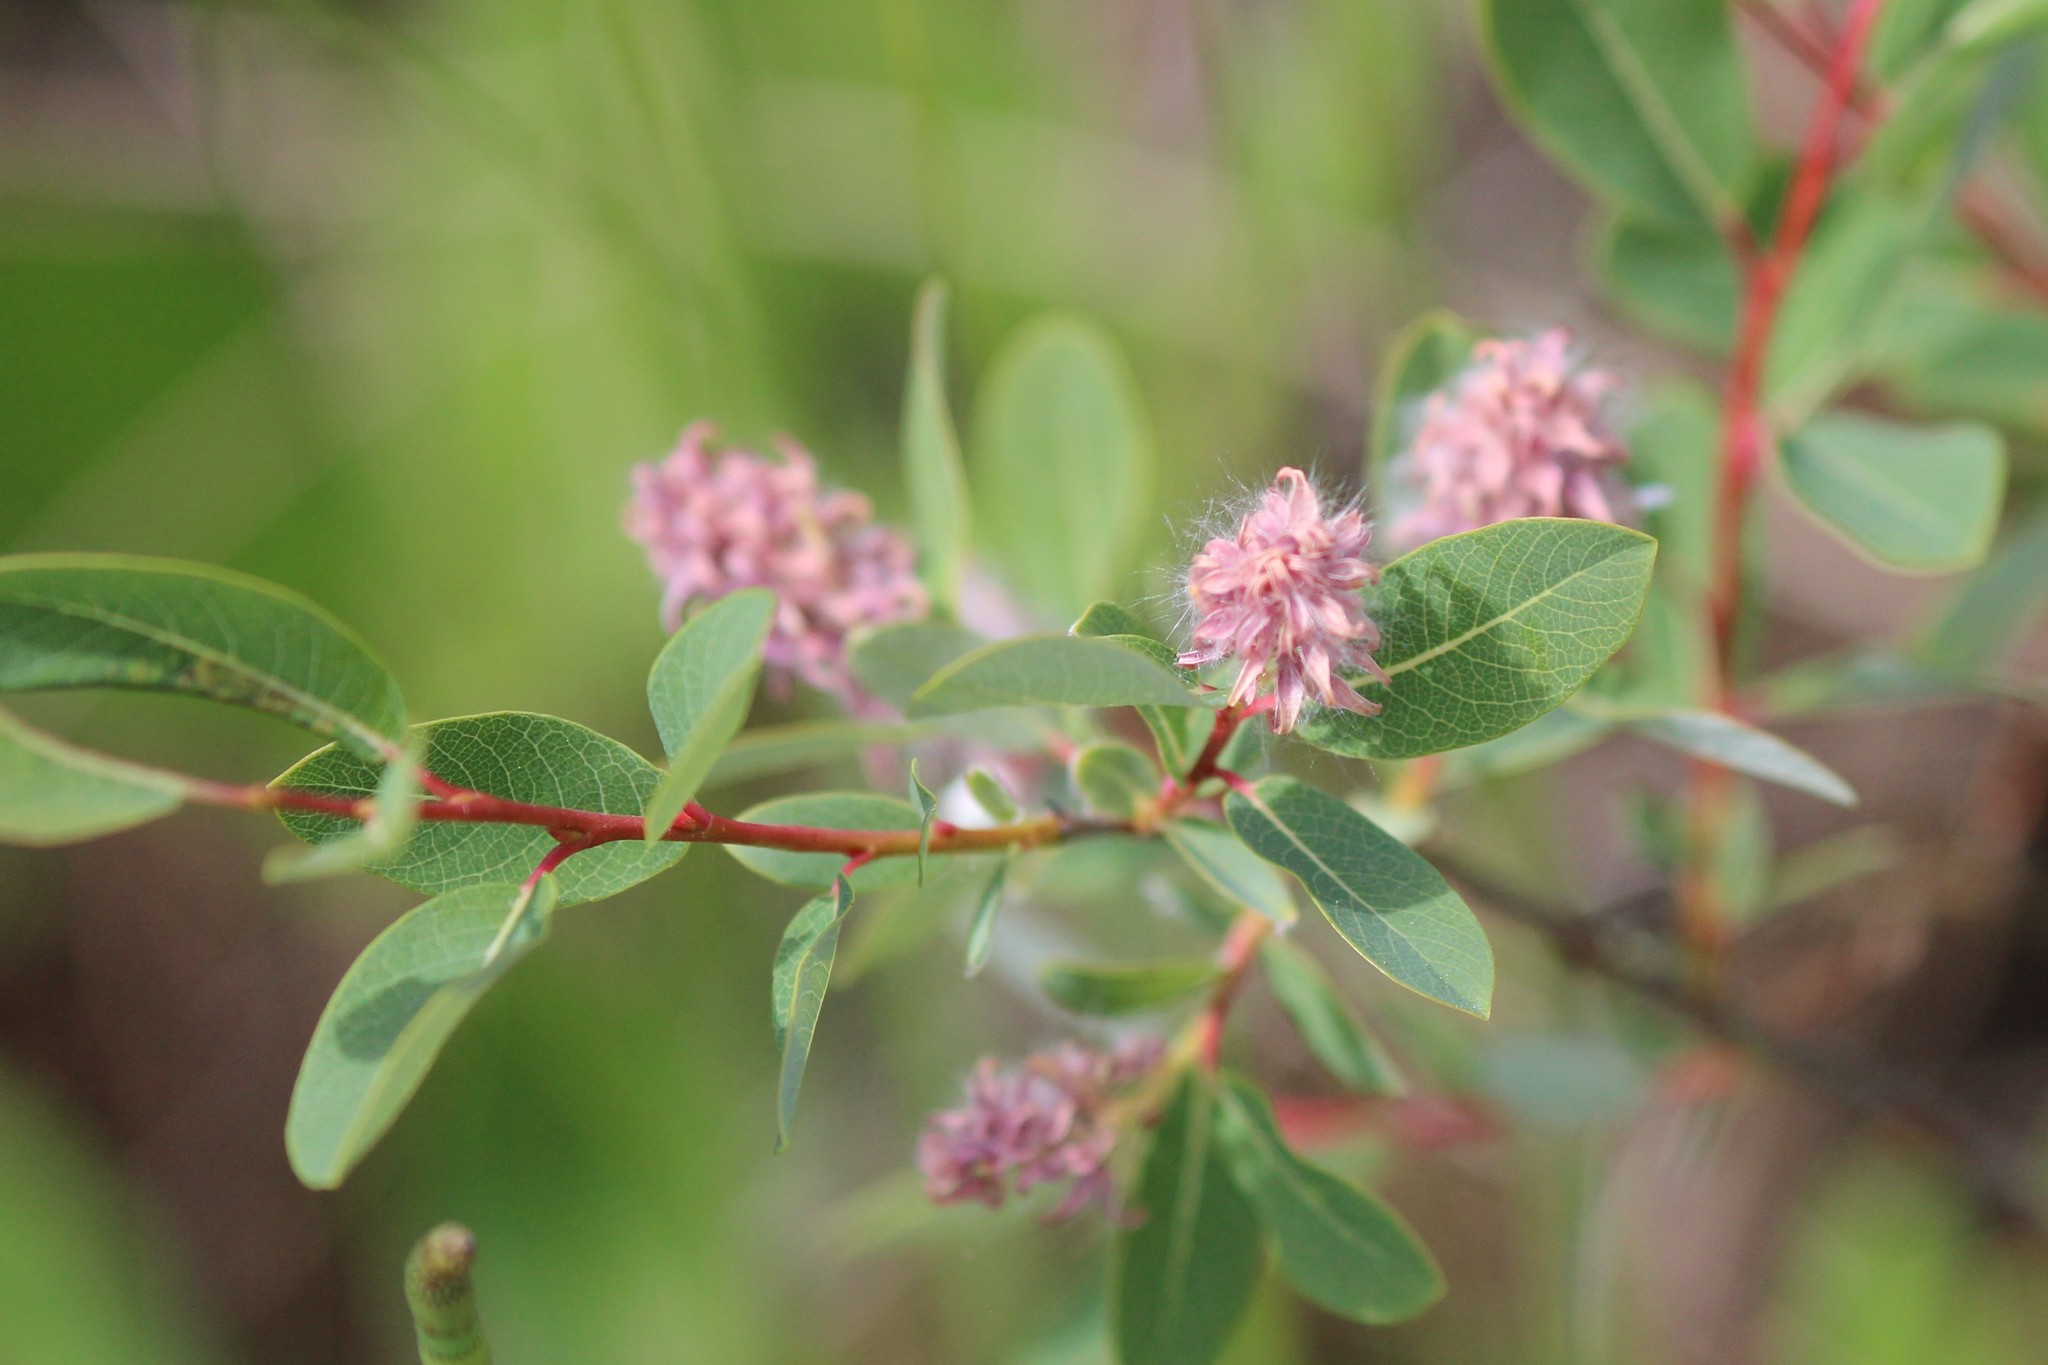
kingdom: Plantae
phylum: Tracheophyta
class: Magnoliopsida
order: Malpighiales
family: Salicaceae
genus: Salix
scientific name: Salix pedicellaris
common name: Bog willow
